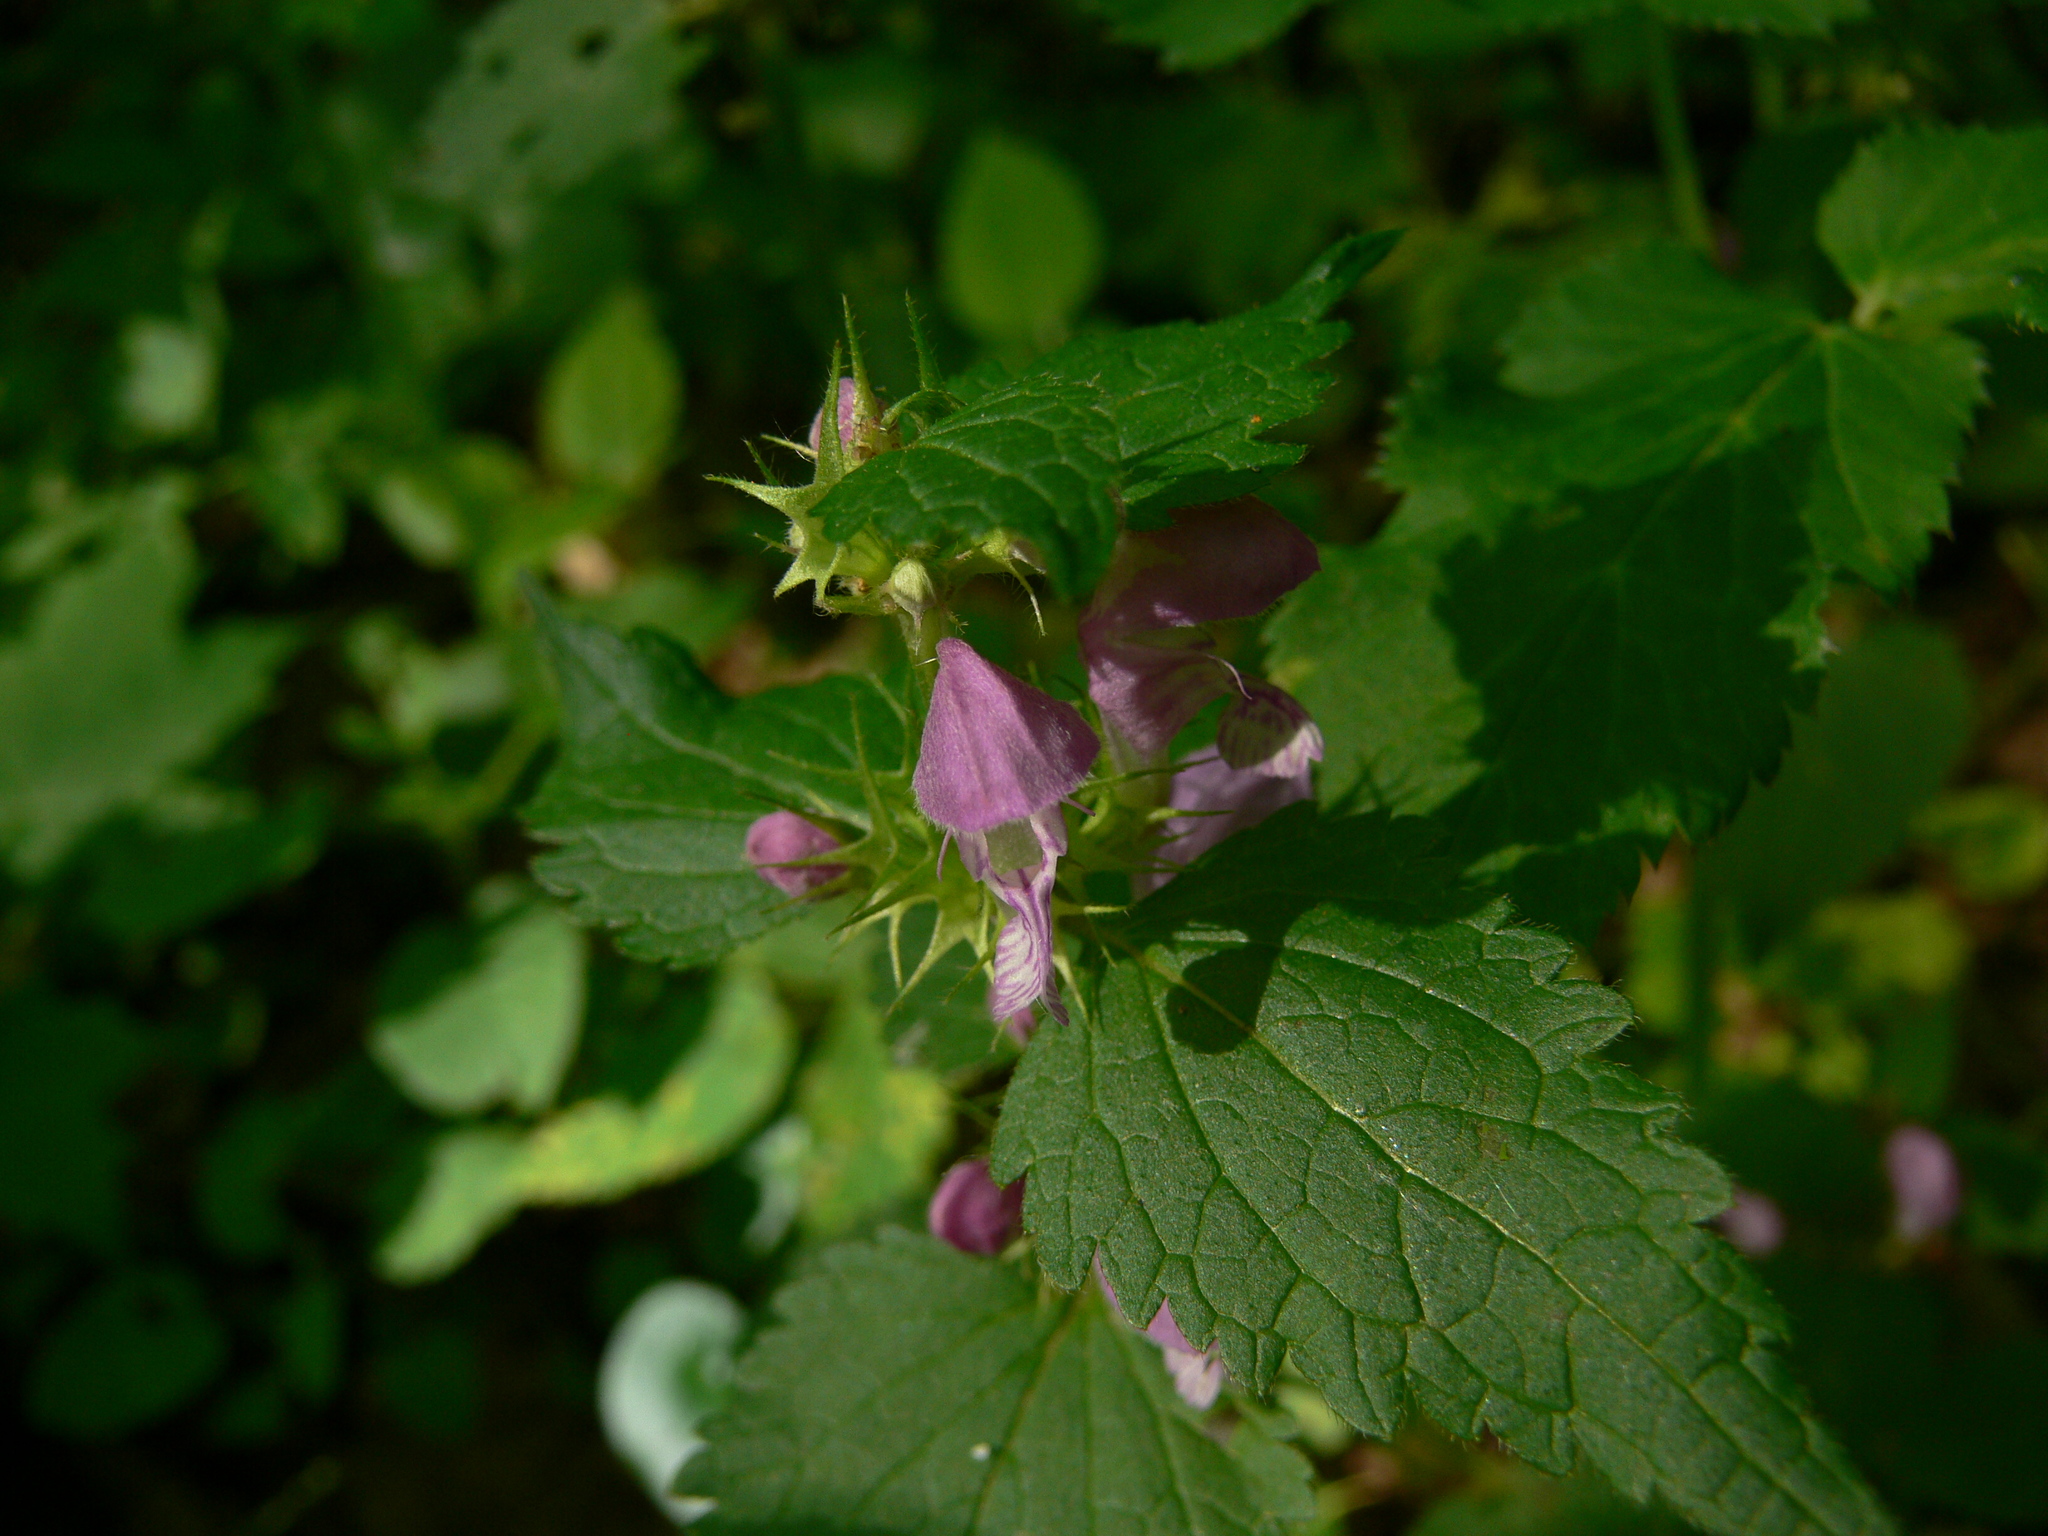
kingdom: Plantae
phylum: Tracheophyta
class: Magnoliopsida
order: Lamiales
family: Lamiaceae
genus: Lamium
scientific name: Lamium maculatum
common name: Spotted dead-nettle
